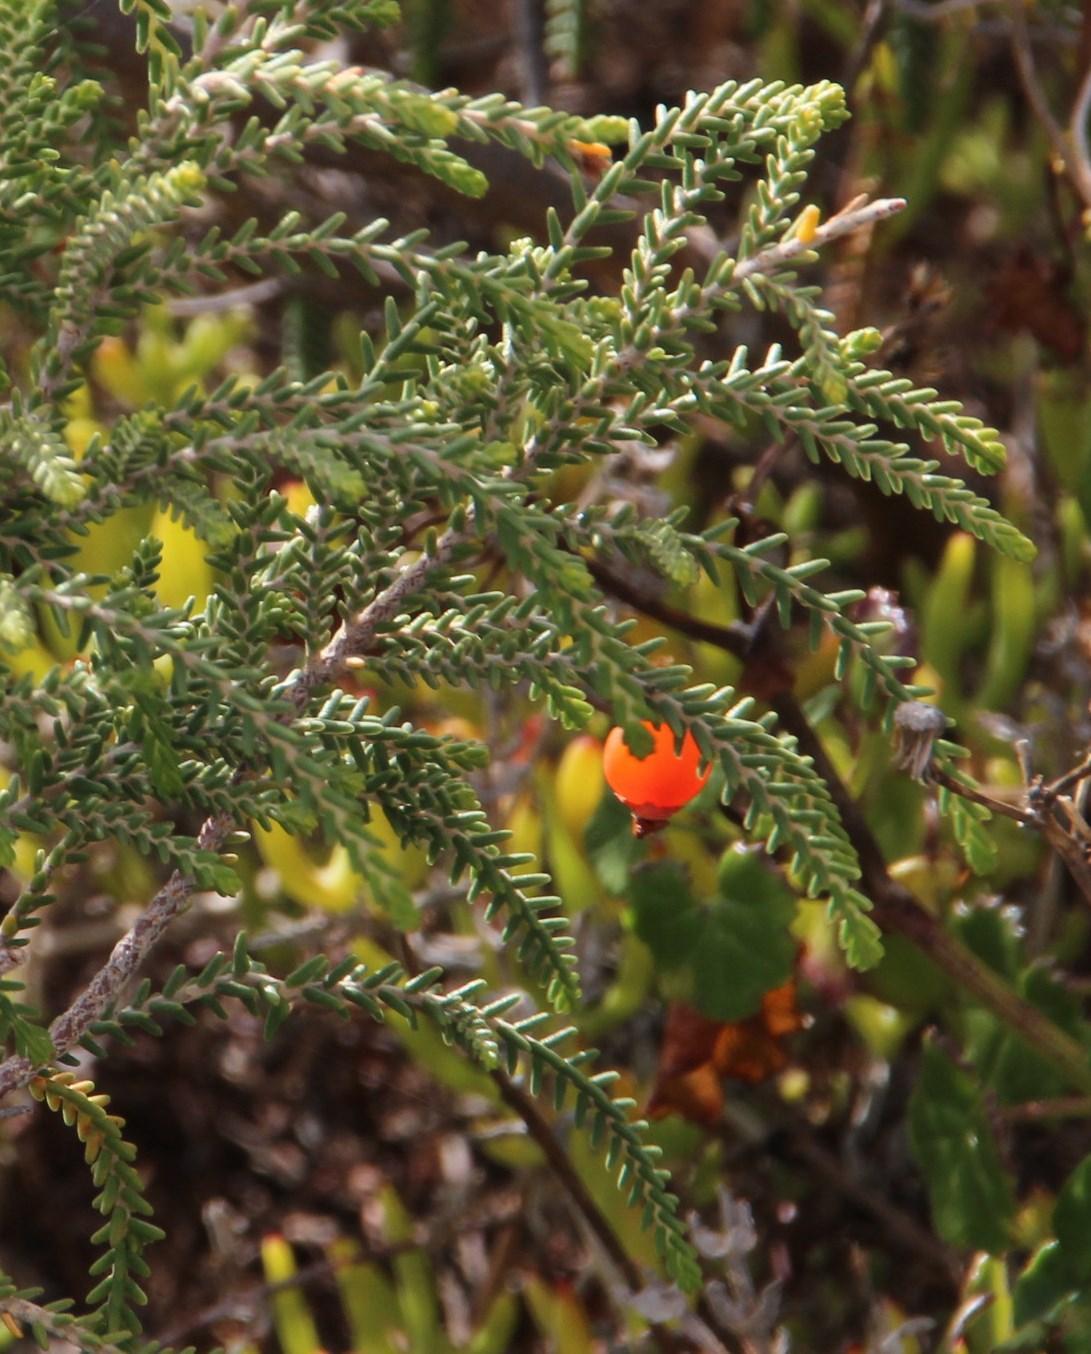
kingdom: Plantae
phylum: Tracheophyta
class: Magnoliopsida
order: Malvales
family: Thymelaeaceae
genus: Passerina
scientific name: Passerina ericoides
